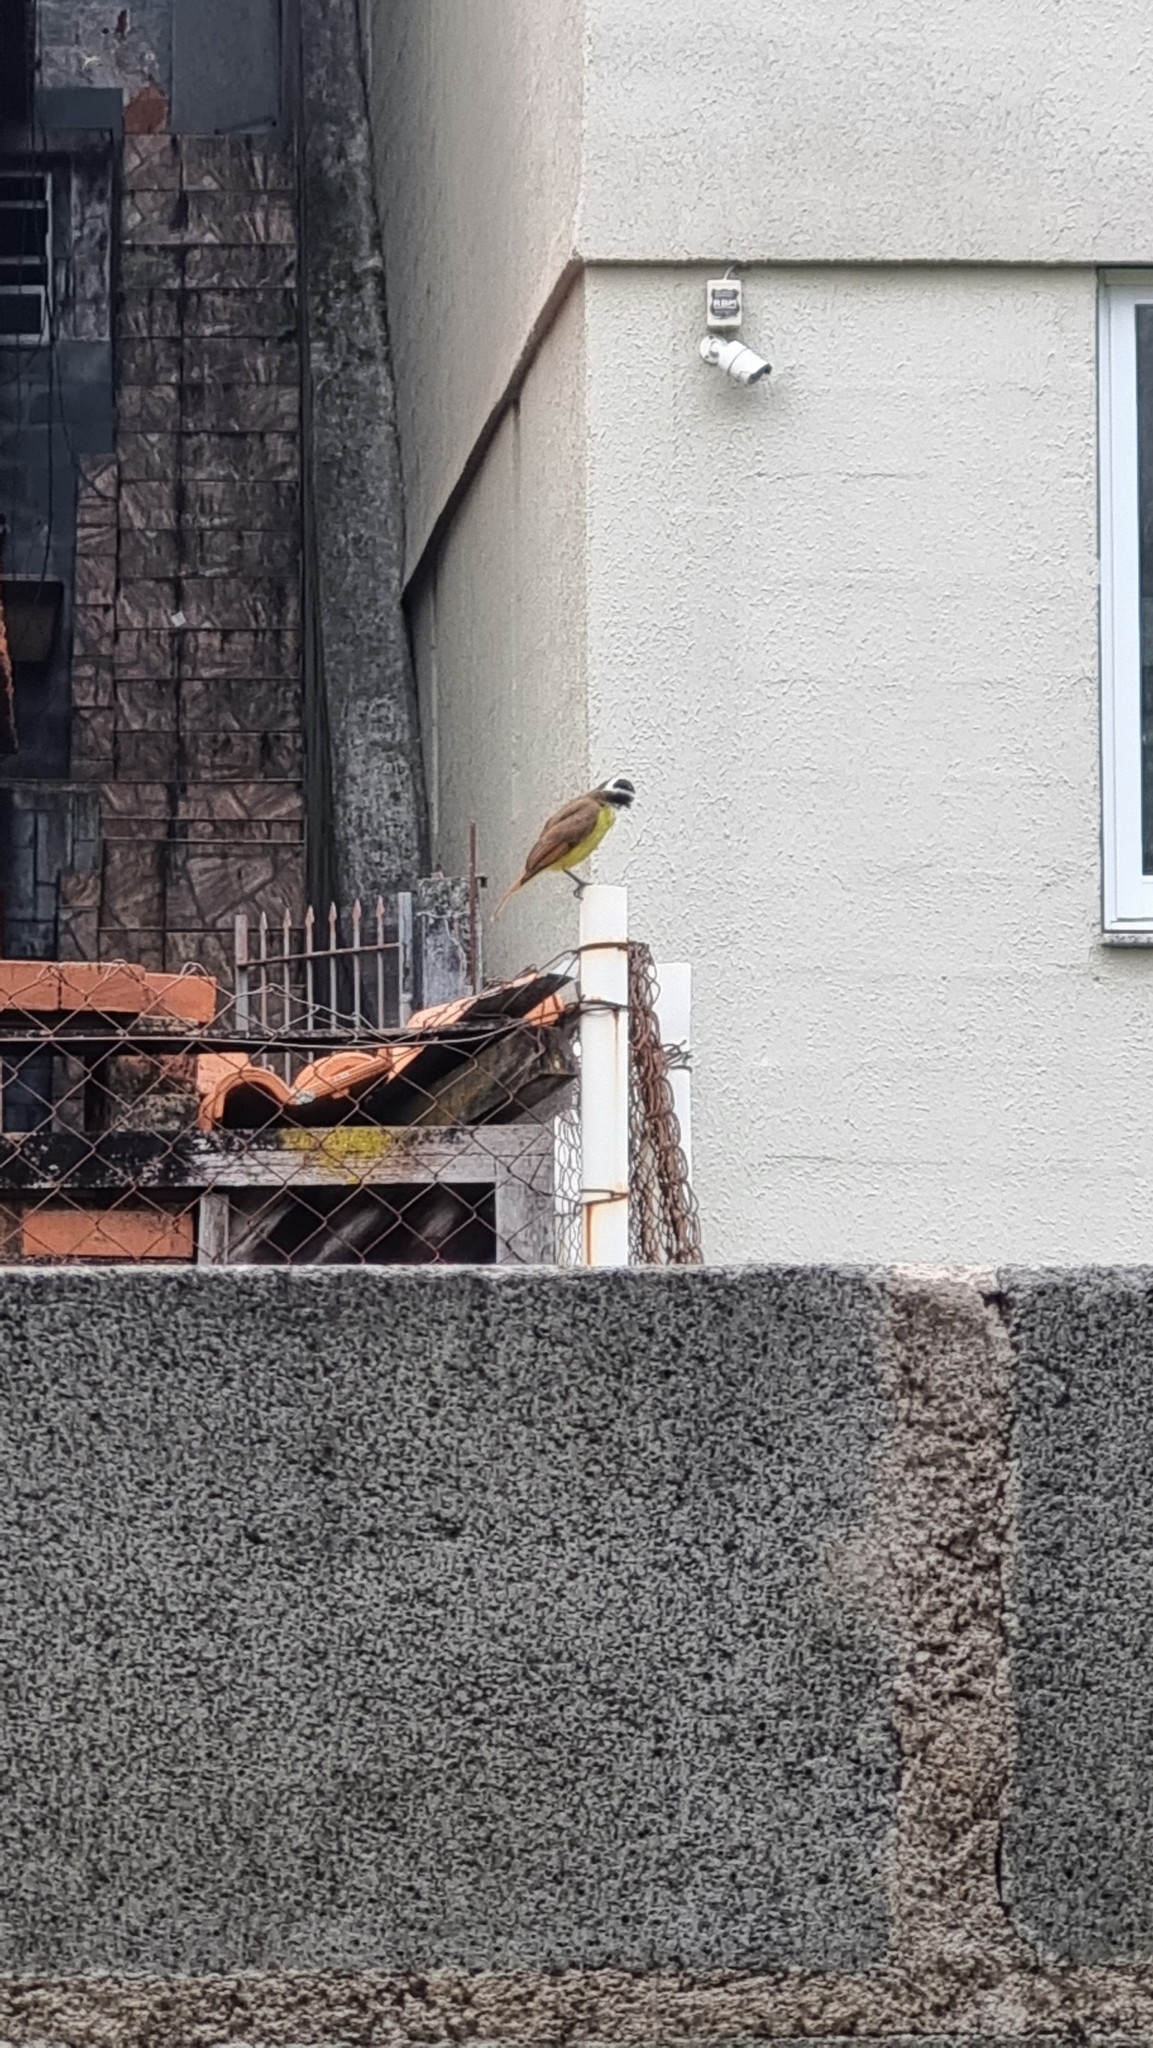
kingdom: Animalia
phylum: Chordata
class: Aves
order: Passeriformes
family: Tyrannidae
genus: Pitangus
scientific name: Pitangus sulphuratus
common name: Great kiskadee
